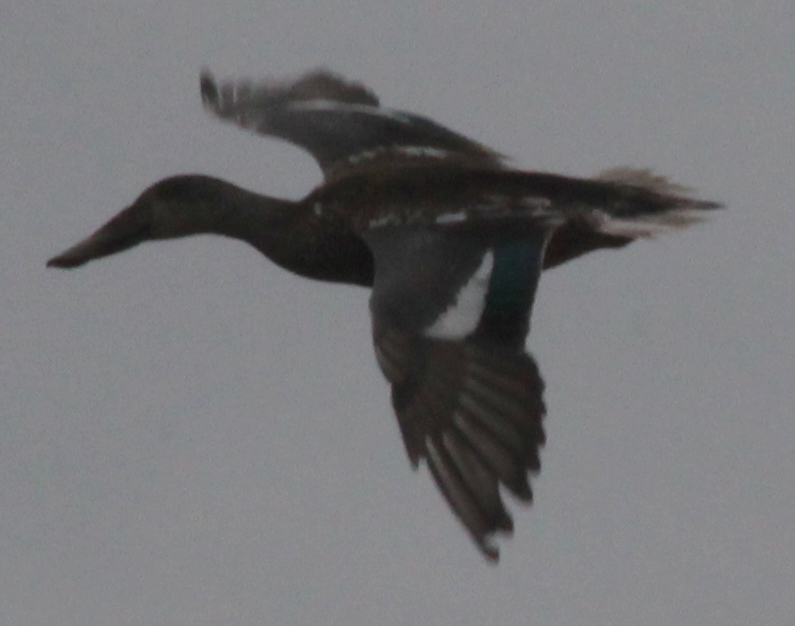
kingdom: Animalia
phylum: Chordata
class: Aves
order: Anseriformes
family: Anatidae
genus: Spatula
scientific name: Spatula clypeata
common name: Northern shoveler
